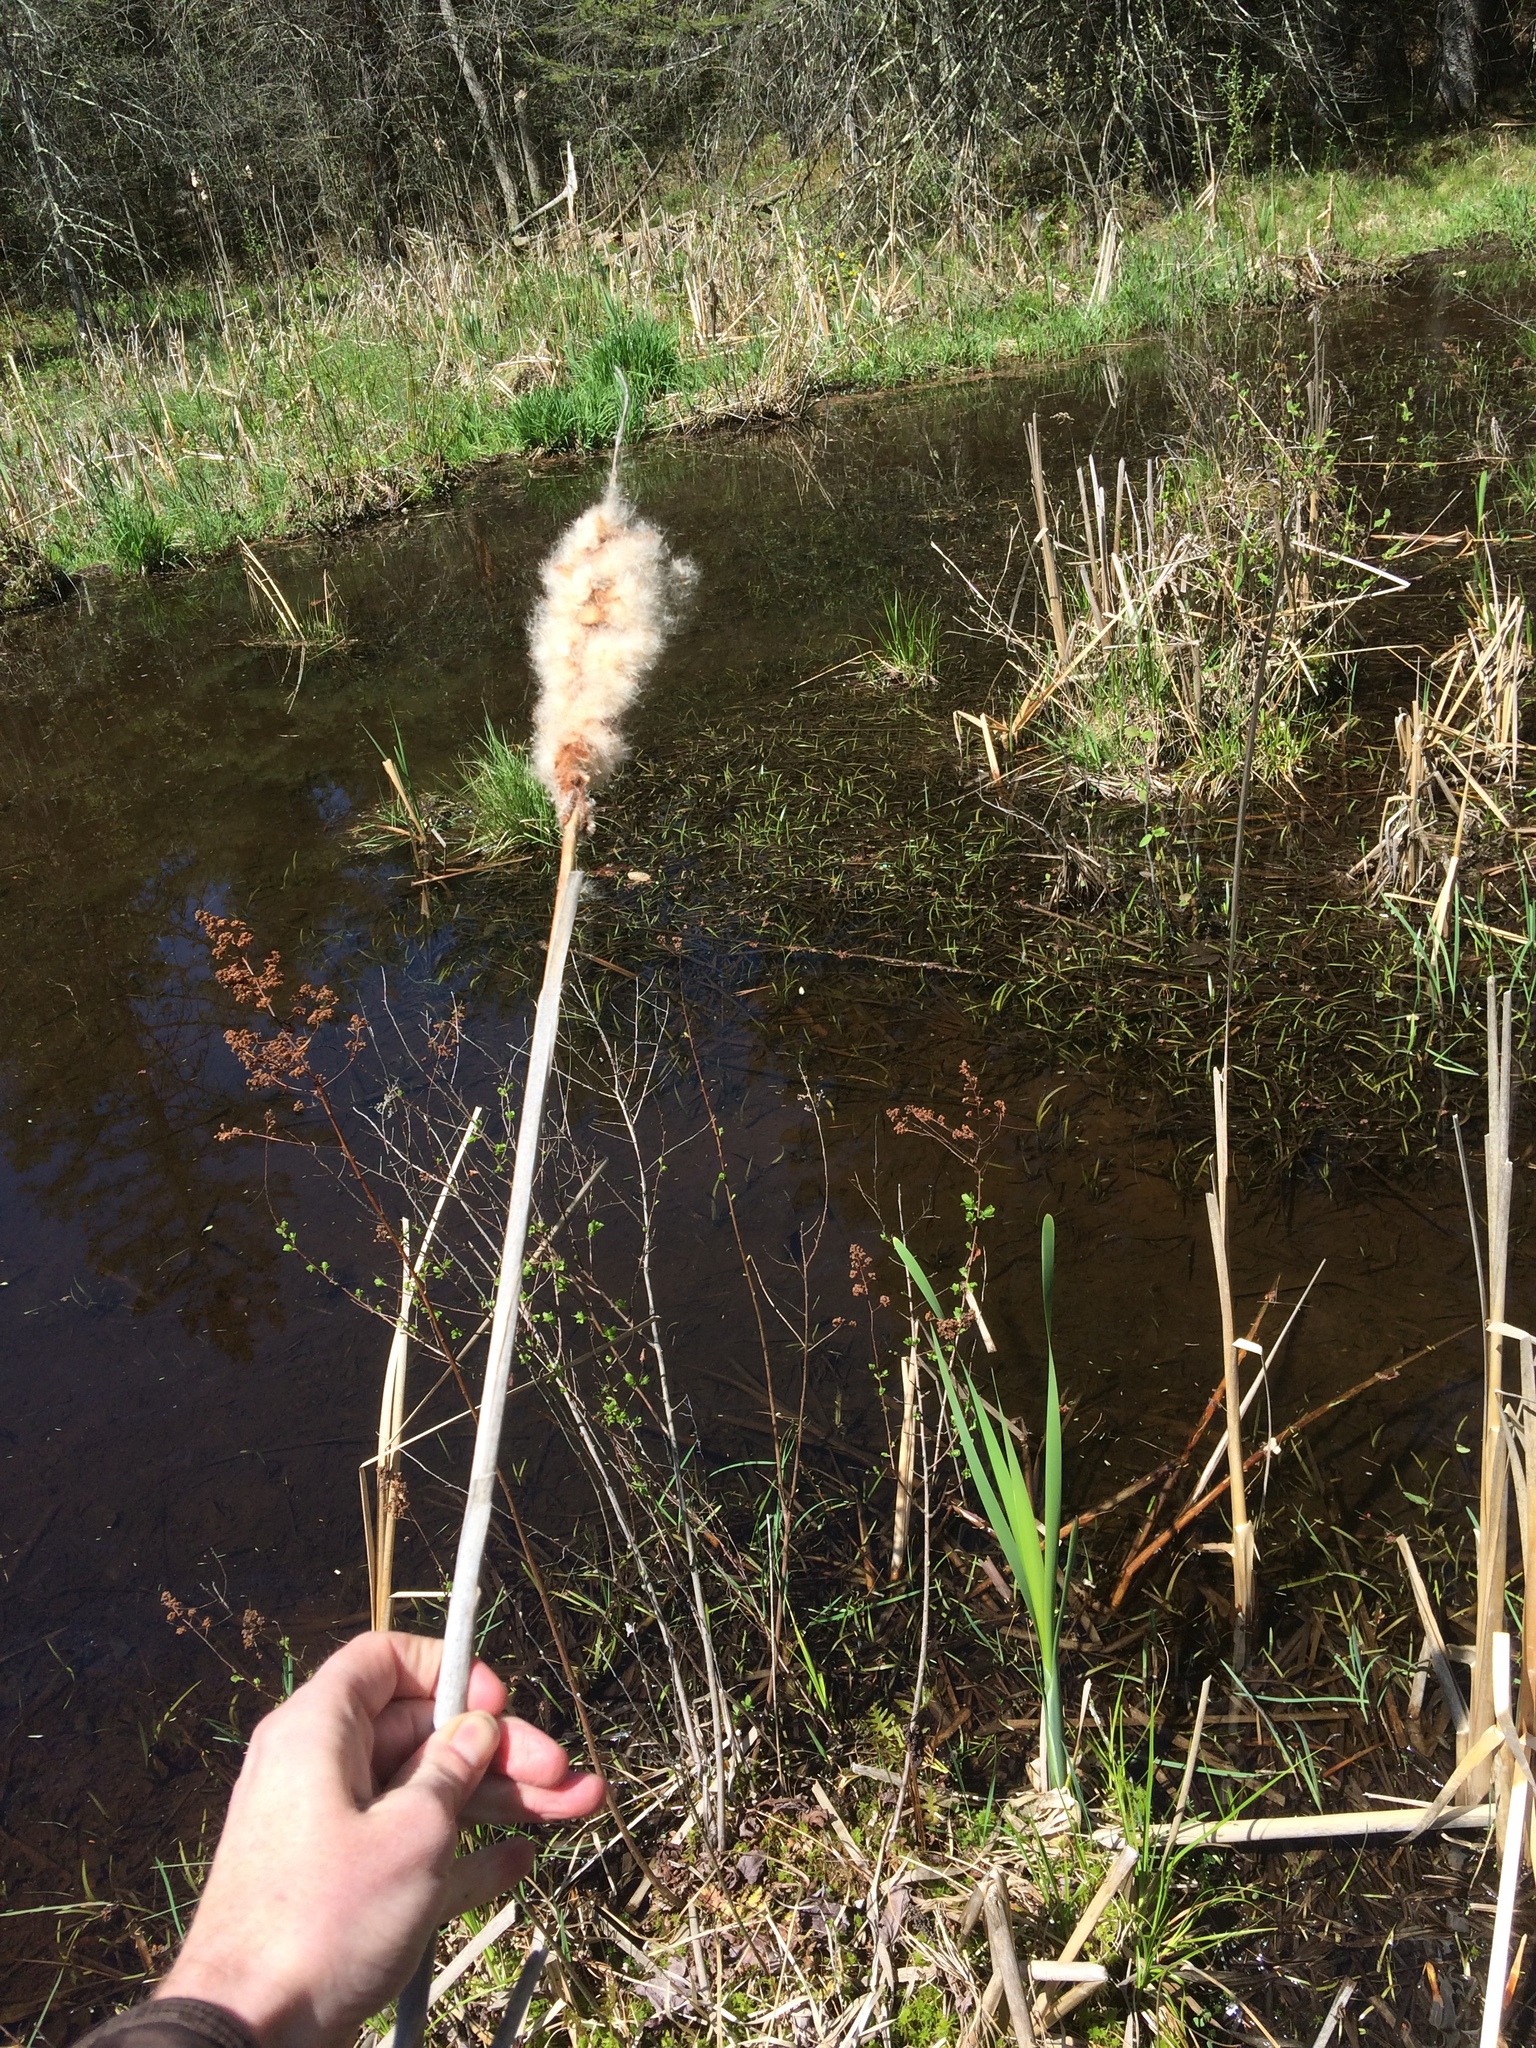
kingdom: Plantae
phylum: Tracheophyta
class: Liliopsida
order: Poales
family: Typhaceae
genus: Typha
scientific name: Typha latifolia
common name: Broadleaf cattail
